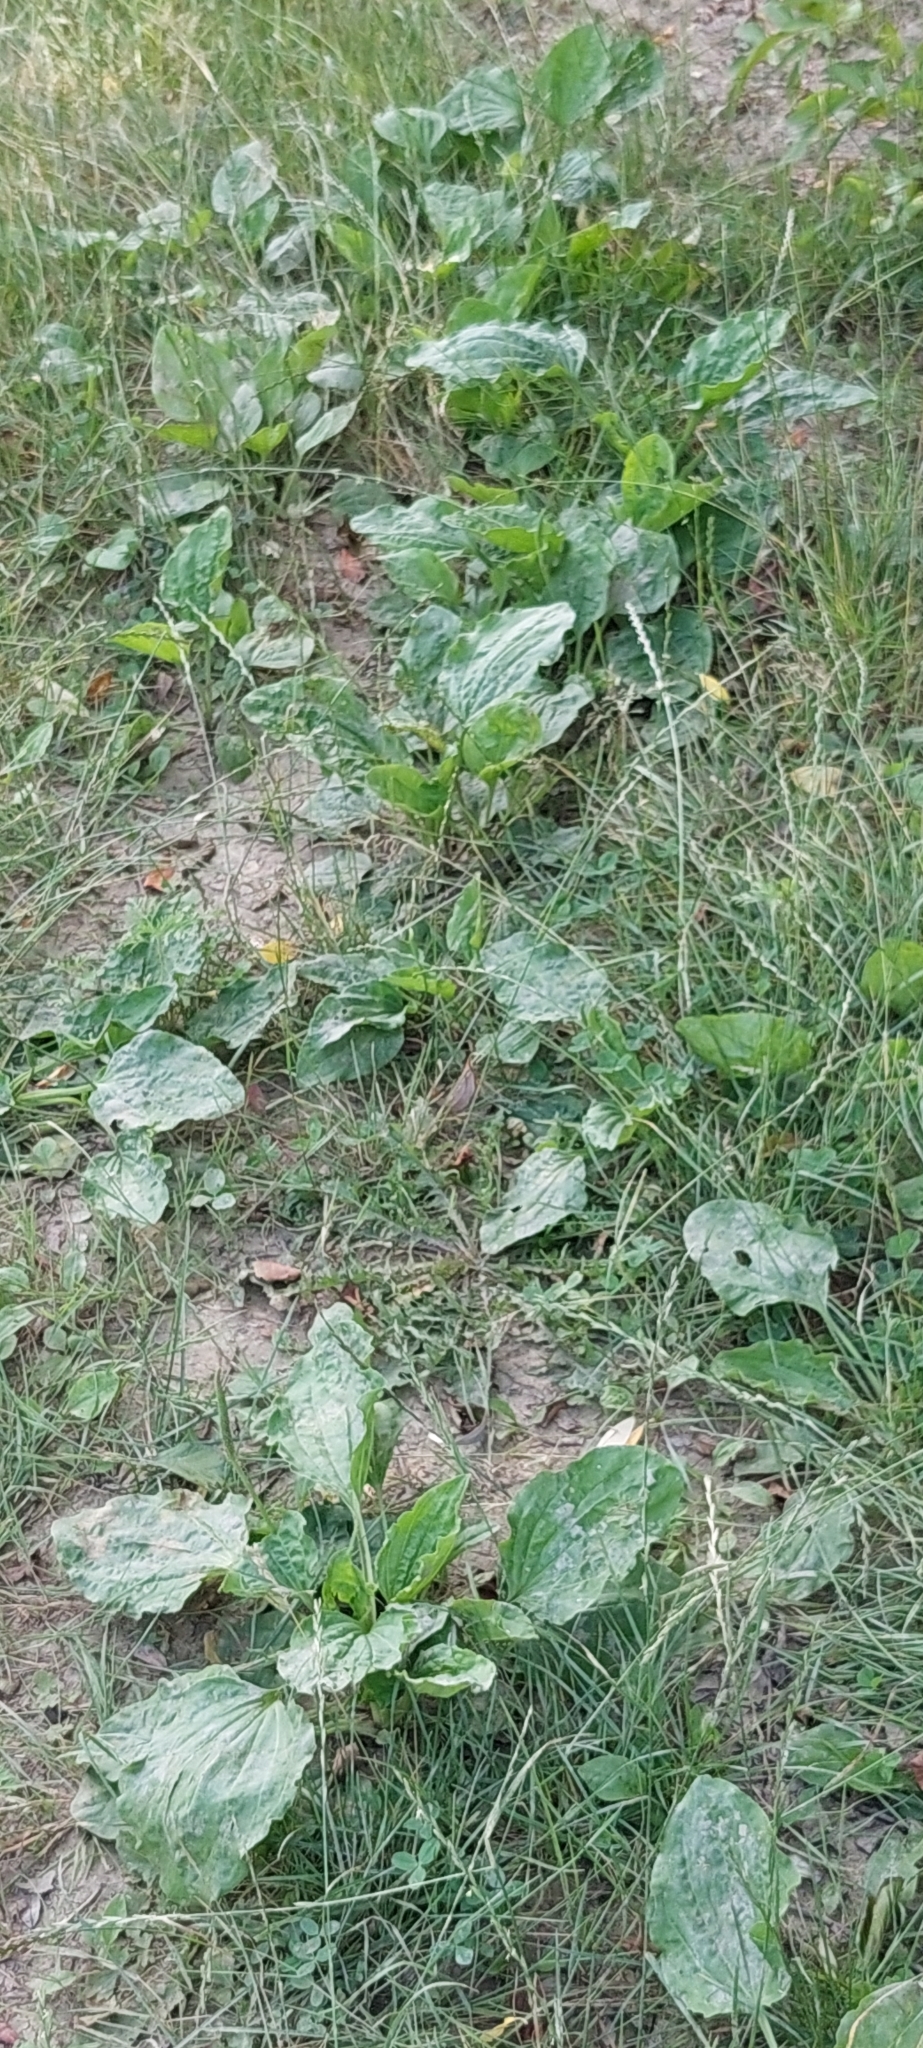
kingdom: Plantae
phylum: Tracheophyta
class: Magnoliopsida
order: Lamiales
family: Plantaginaceae
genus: Plantago
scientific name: Plantago major
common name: Common plantain
